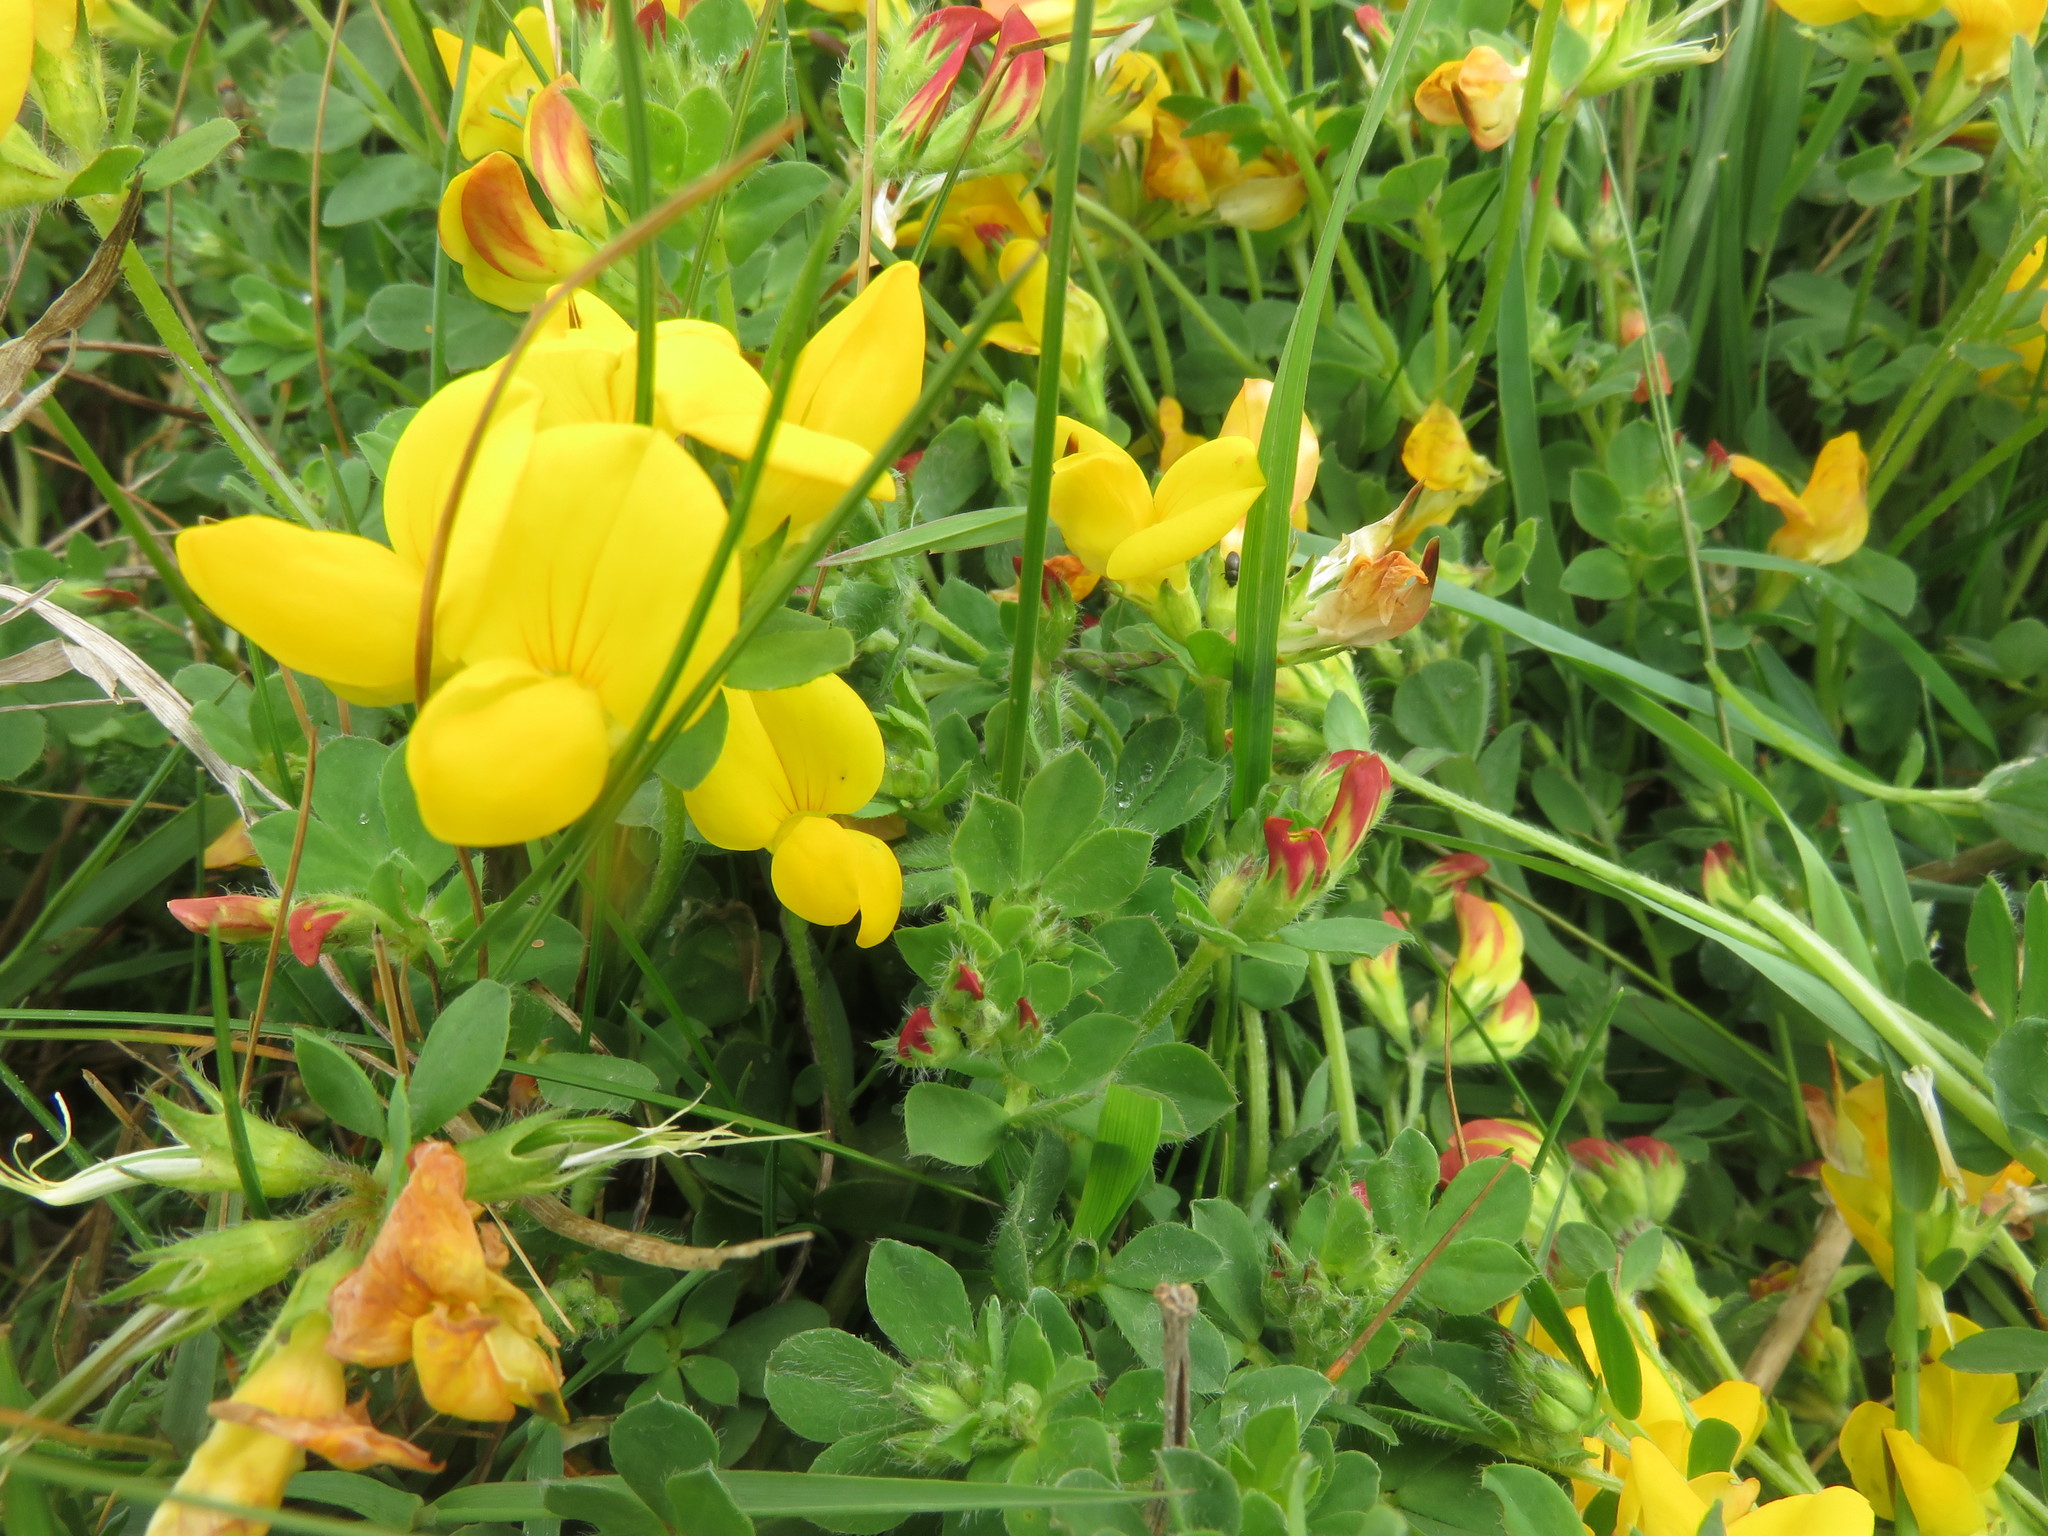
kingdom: Plantae
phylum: Tracheophyta
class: Magnoliopsida
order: Fabales
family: Fabaceae
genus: Lotus
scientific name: Lotus corniculatus
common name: Common bird's-foot-trefoil
